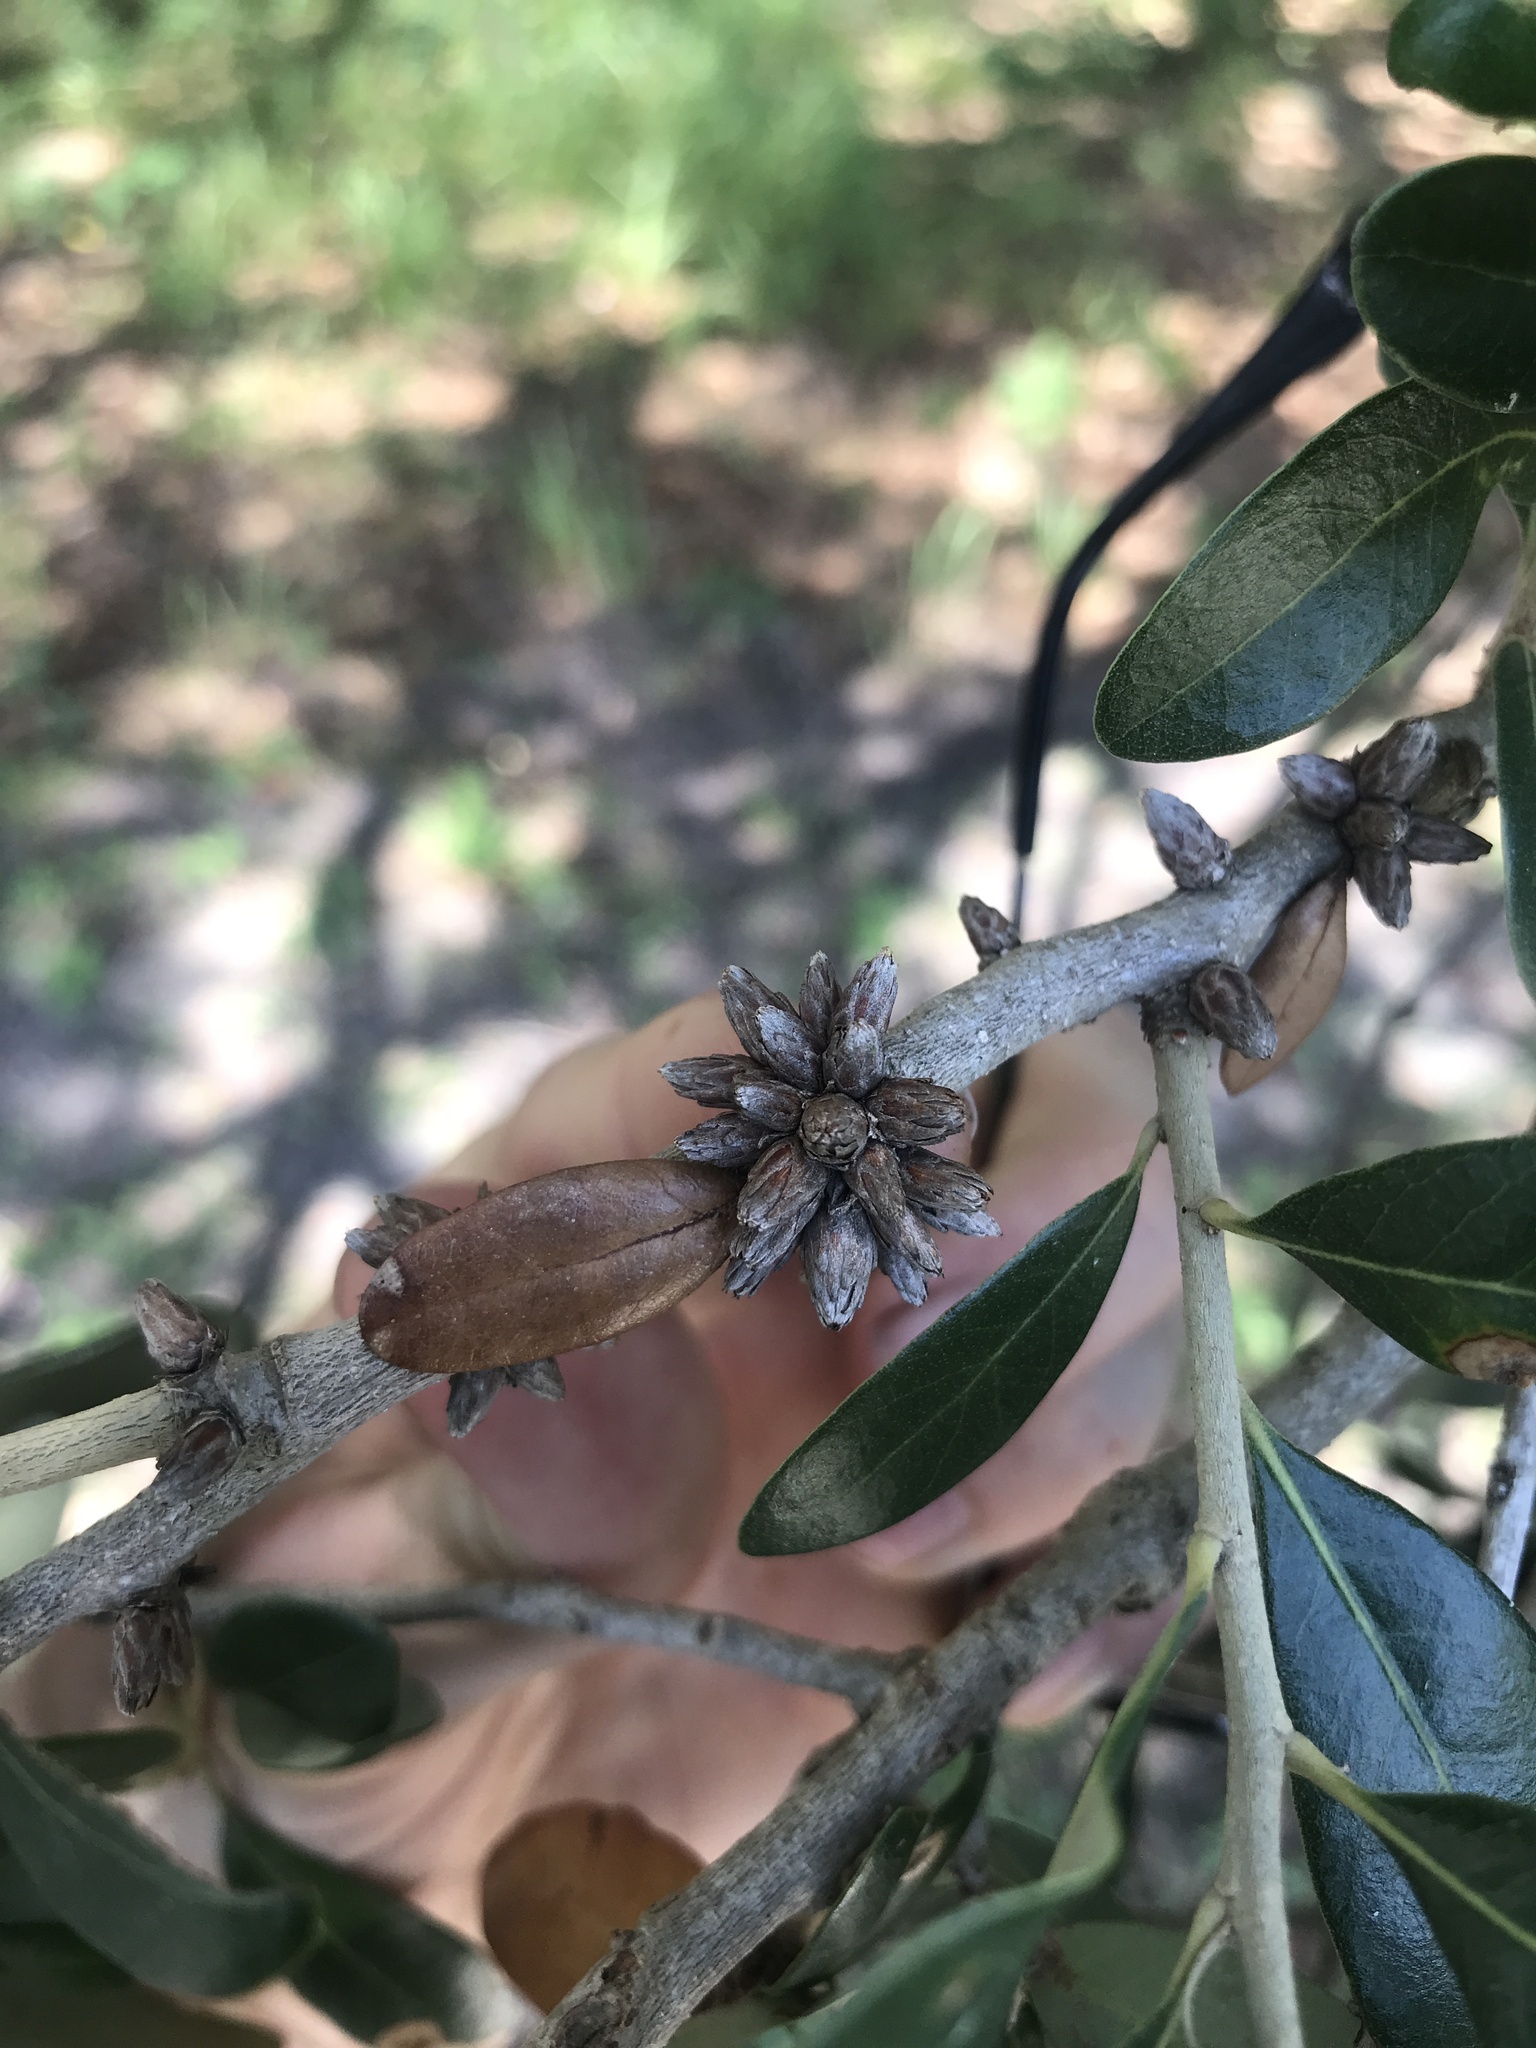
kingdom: Animalia
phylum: Arthropoda
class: Insecta
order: Diptera
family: Cecidomyiidae
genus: Arnoldiola
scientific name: Arnoldiola atra
